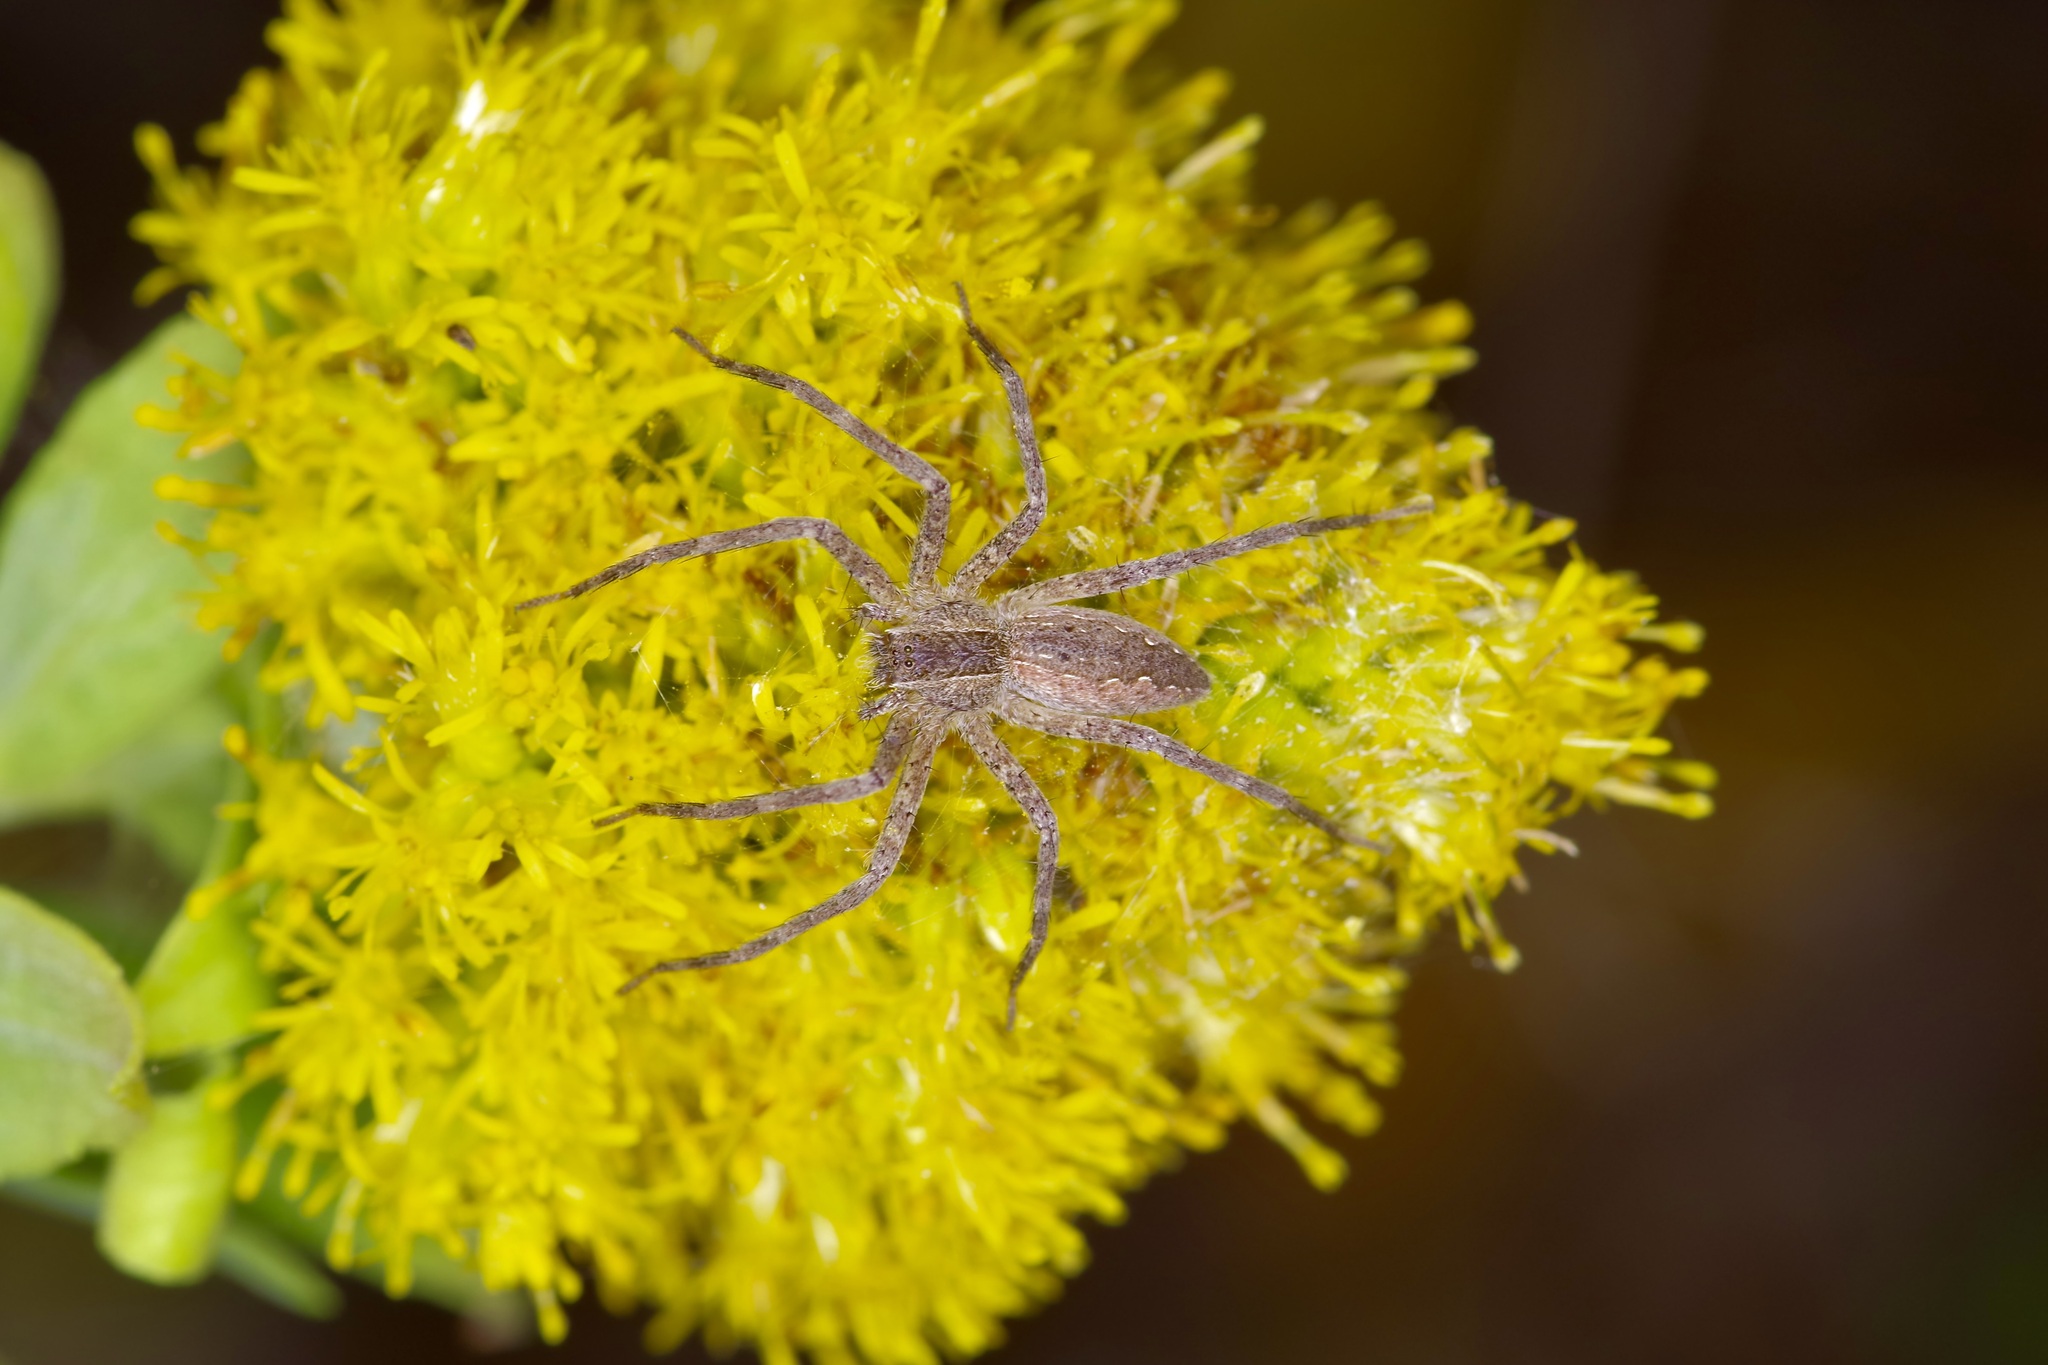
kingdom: Animalia
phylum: Arthropoda
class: Arachnida
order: Araneae
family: Pisauridae
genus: Pisaurina
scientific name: Pisaurina mira
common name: American nursery web spider
